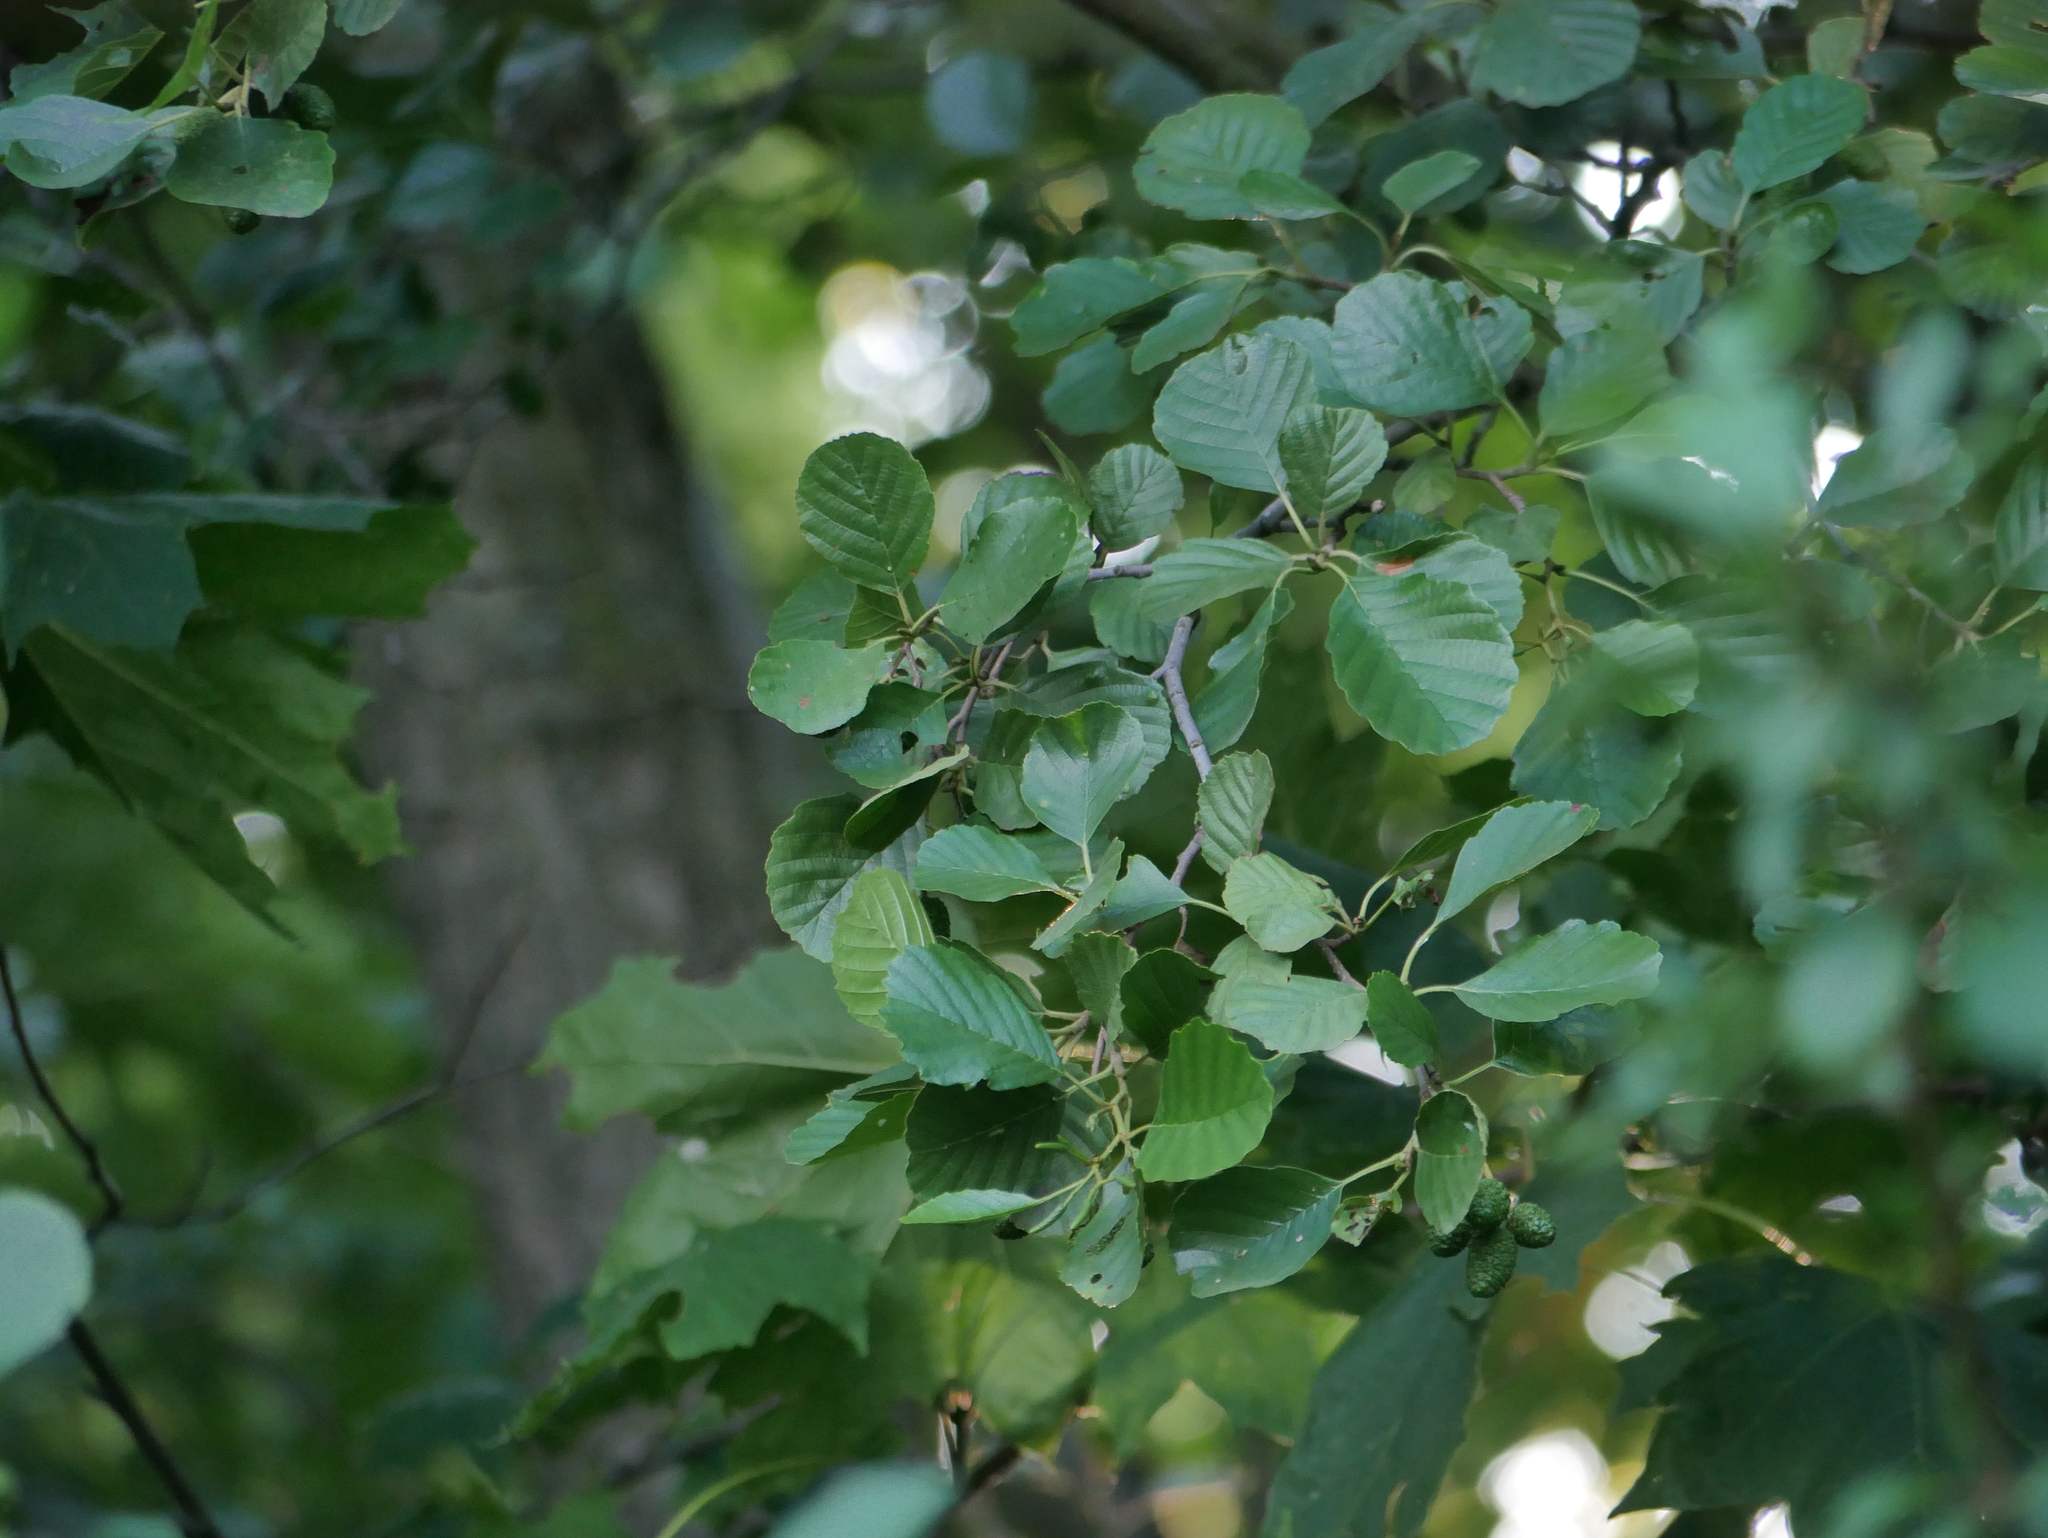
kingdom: Plantae
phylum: Tracheophyta
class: Magnoliopsida
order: Fagales
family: Betulaceae
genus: Alnus
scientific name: Alnus glutinosa
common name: Black alder
